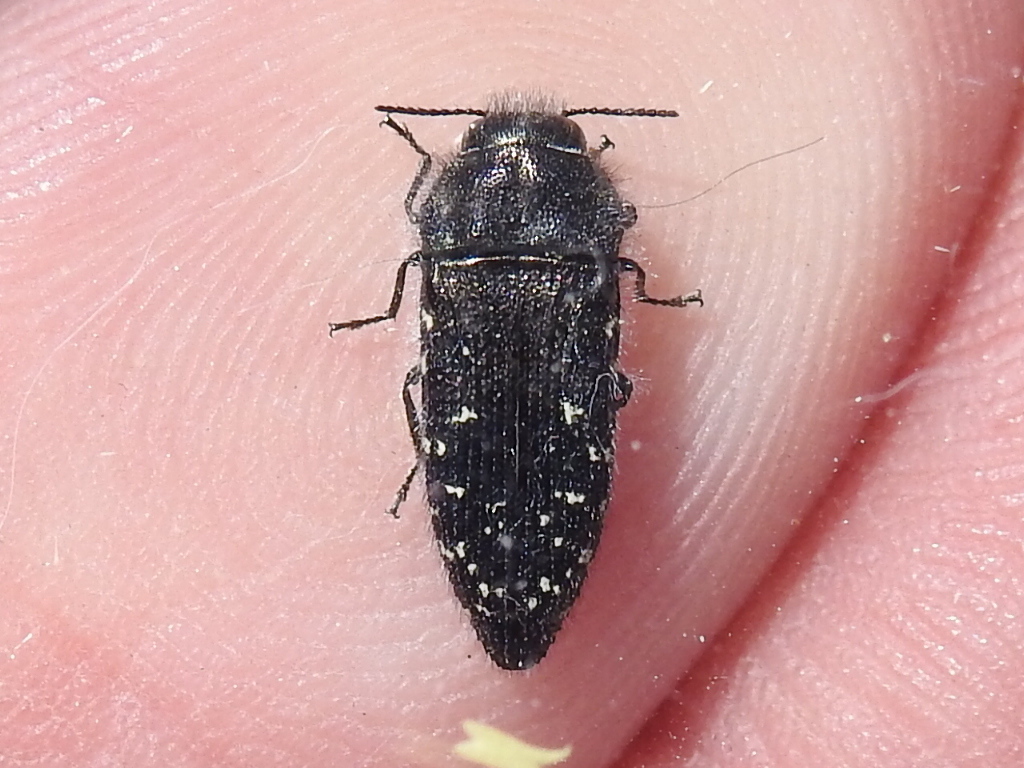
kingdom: Animalia
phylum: Arthropoda
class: Insecta
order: Coleoptera
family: Buprestidae
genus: Acmaeodera
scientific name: Acmaeodera ornatoides
